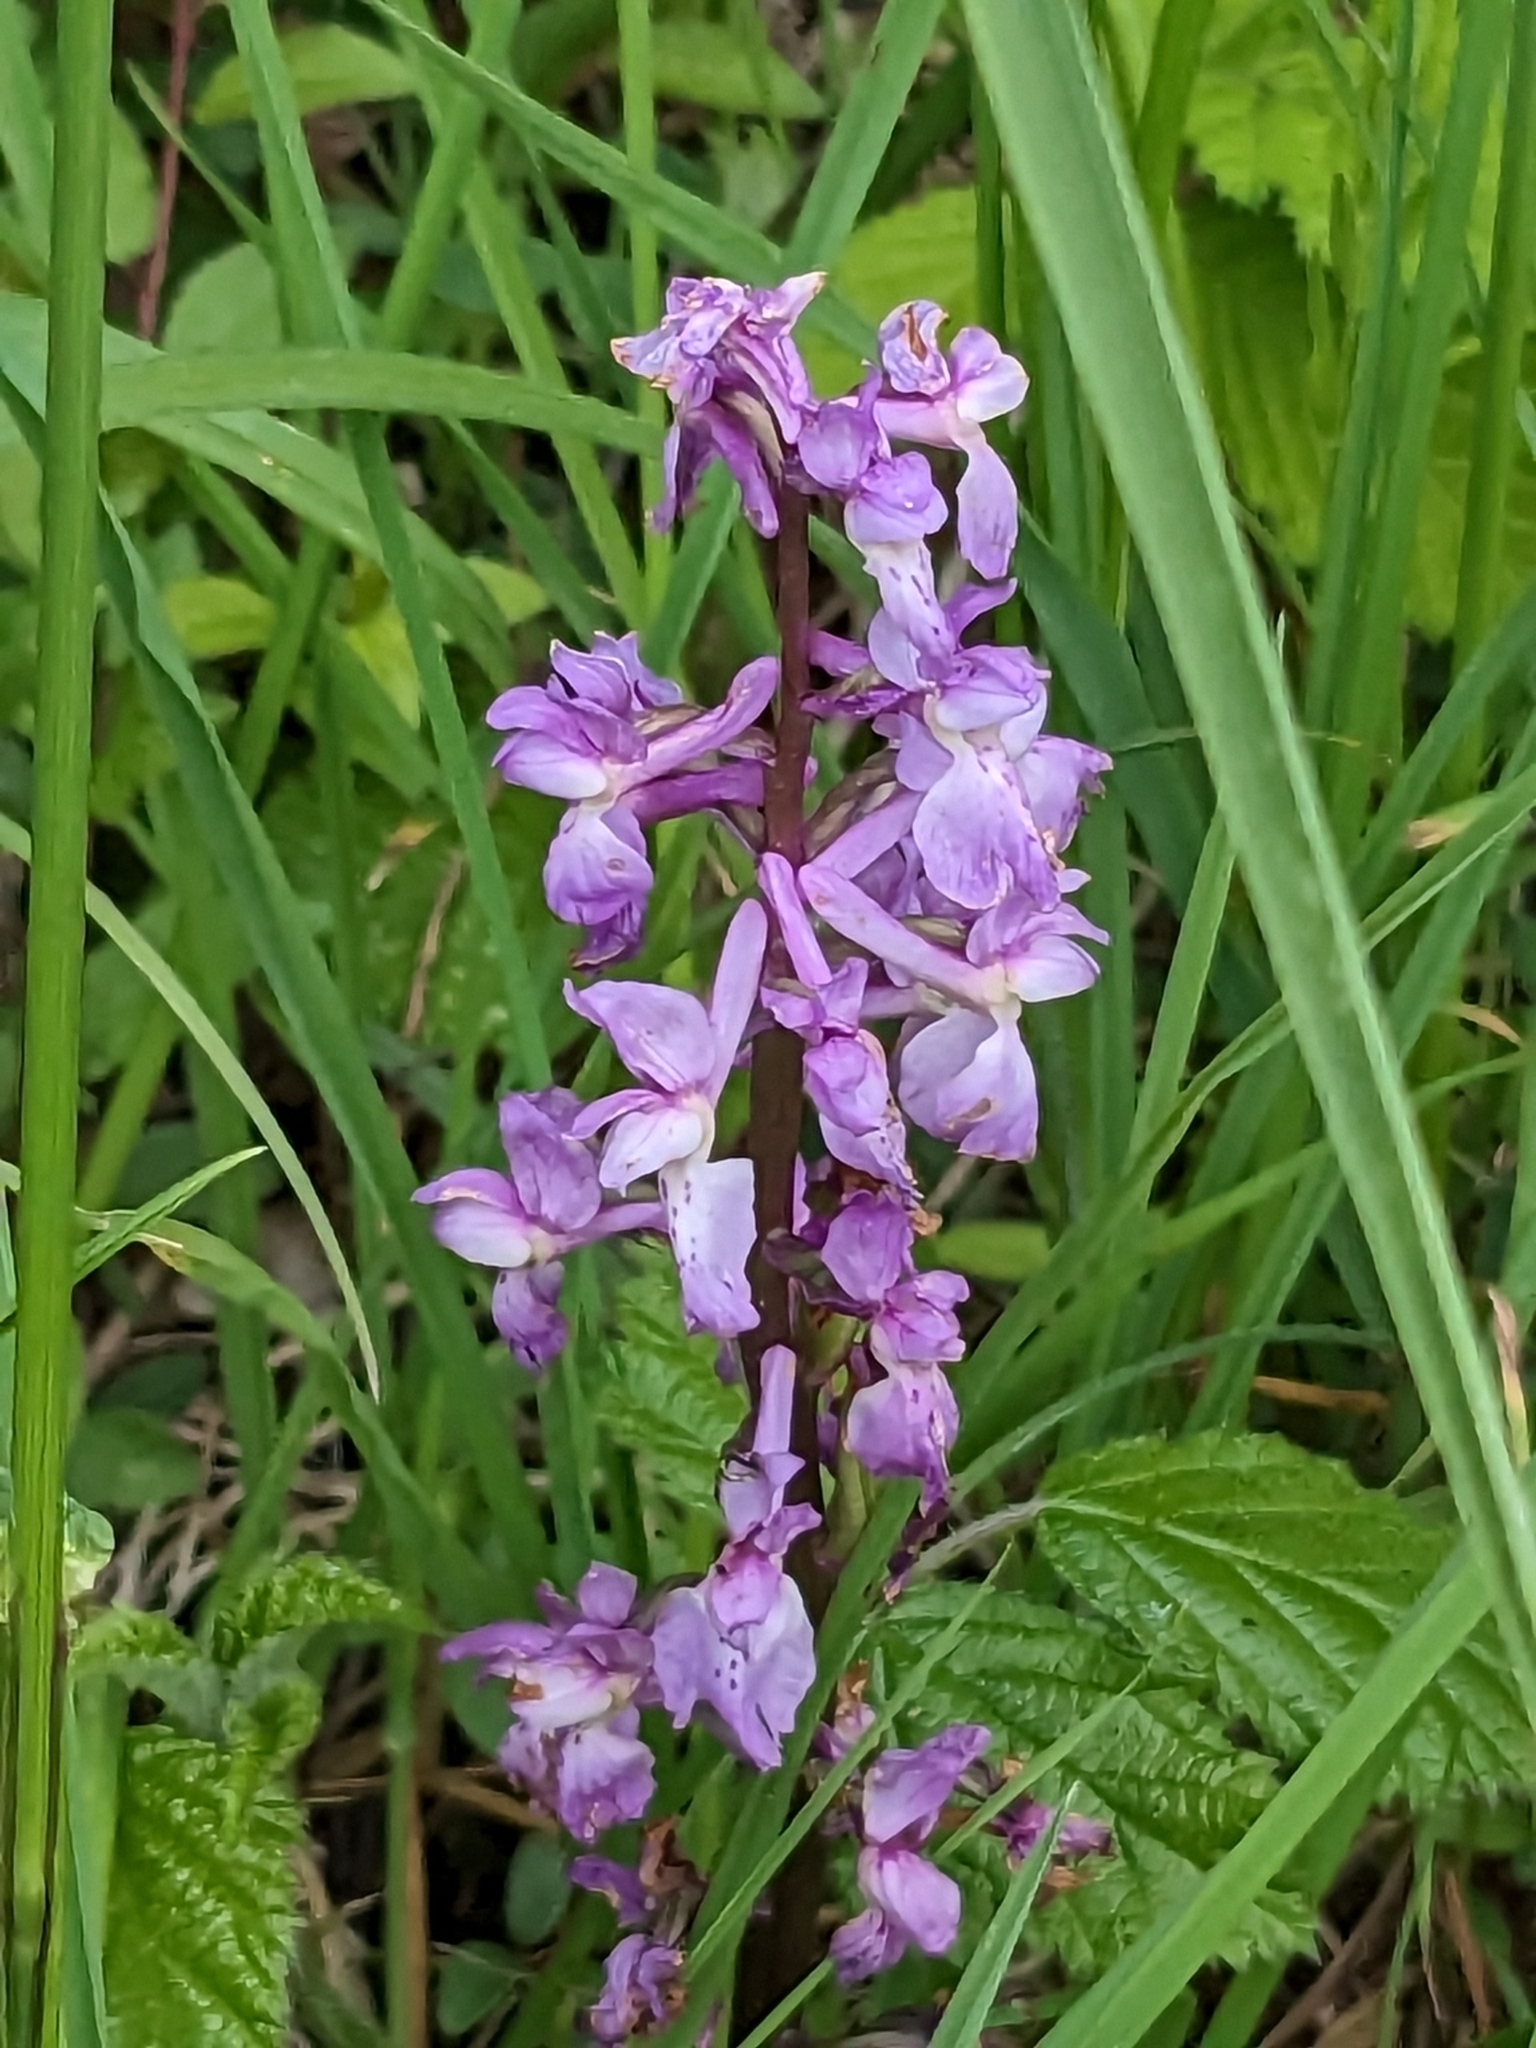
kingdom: Plantae
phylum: Tracheophyta
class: Liliopsida
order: Asparagales
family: Orchidaceae
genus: Orchis
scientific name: Orchis mascula
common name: Early-purple orchid
